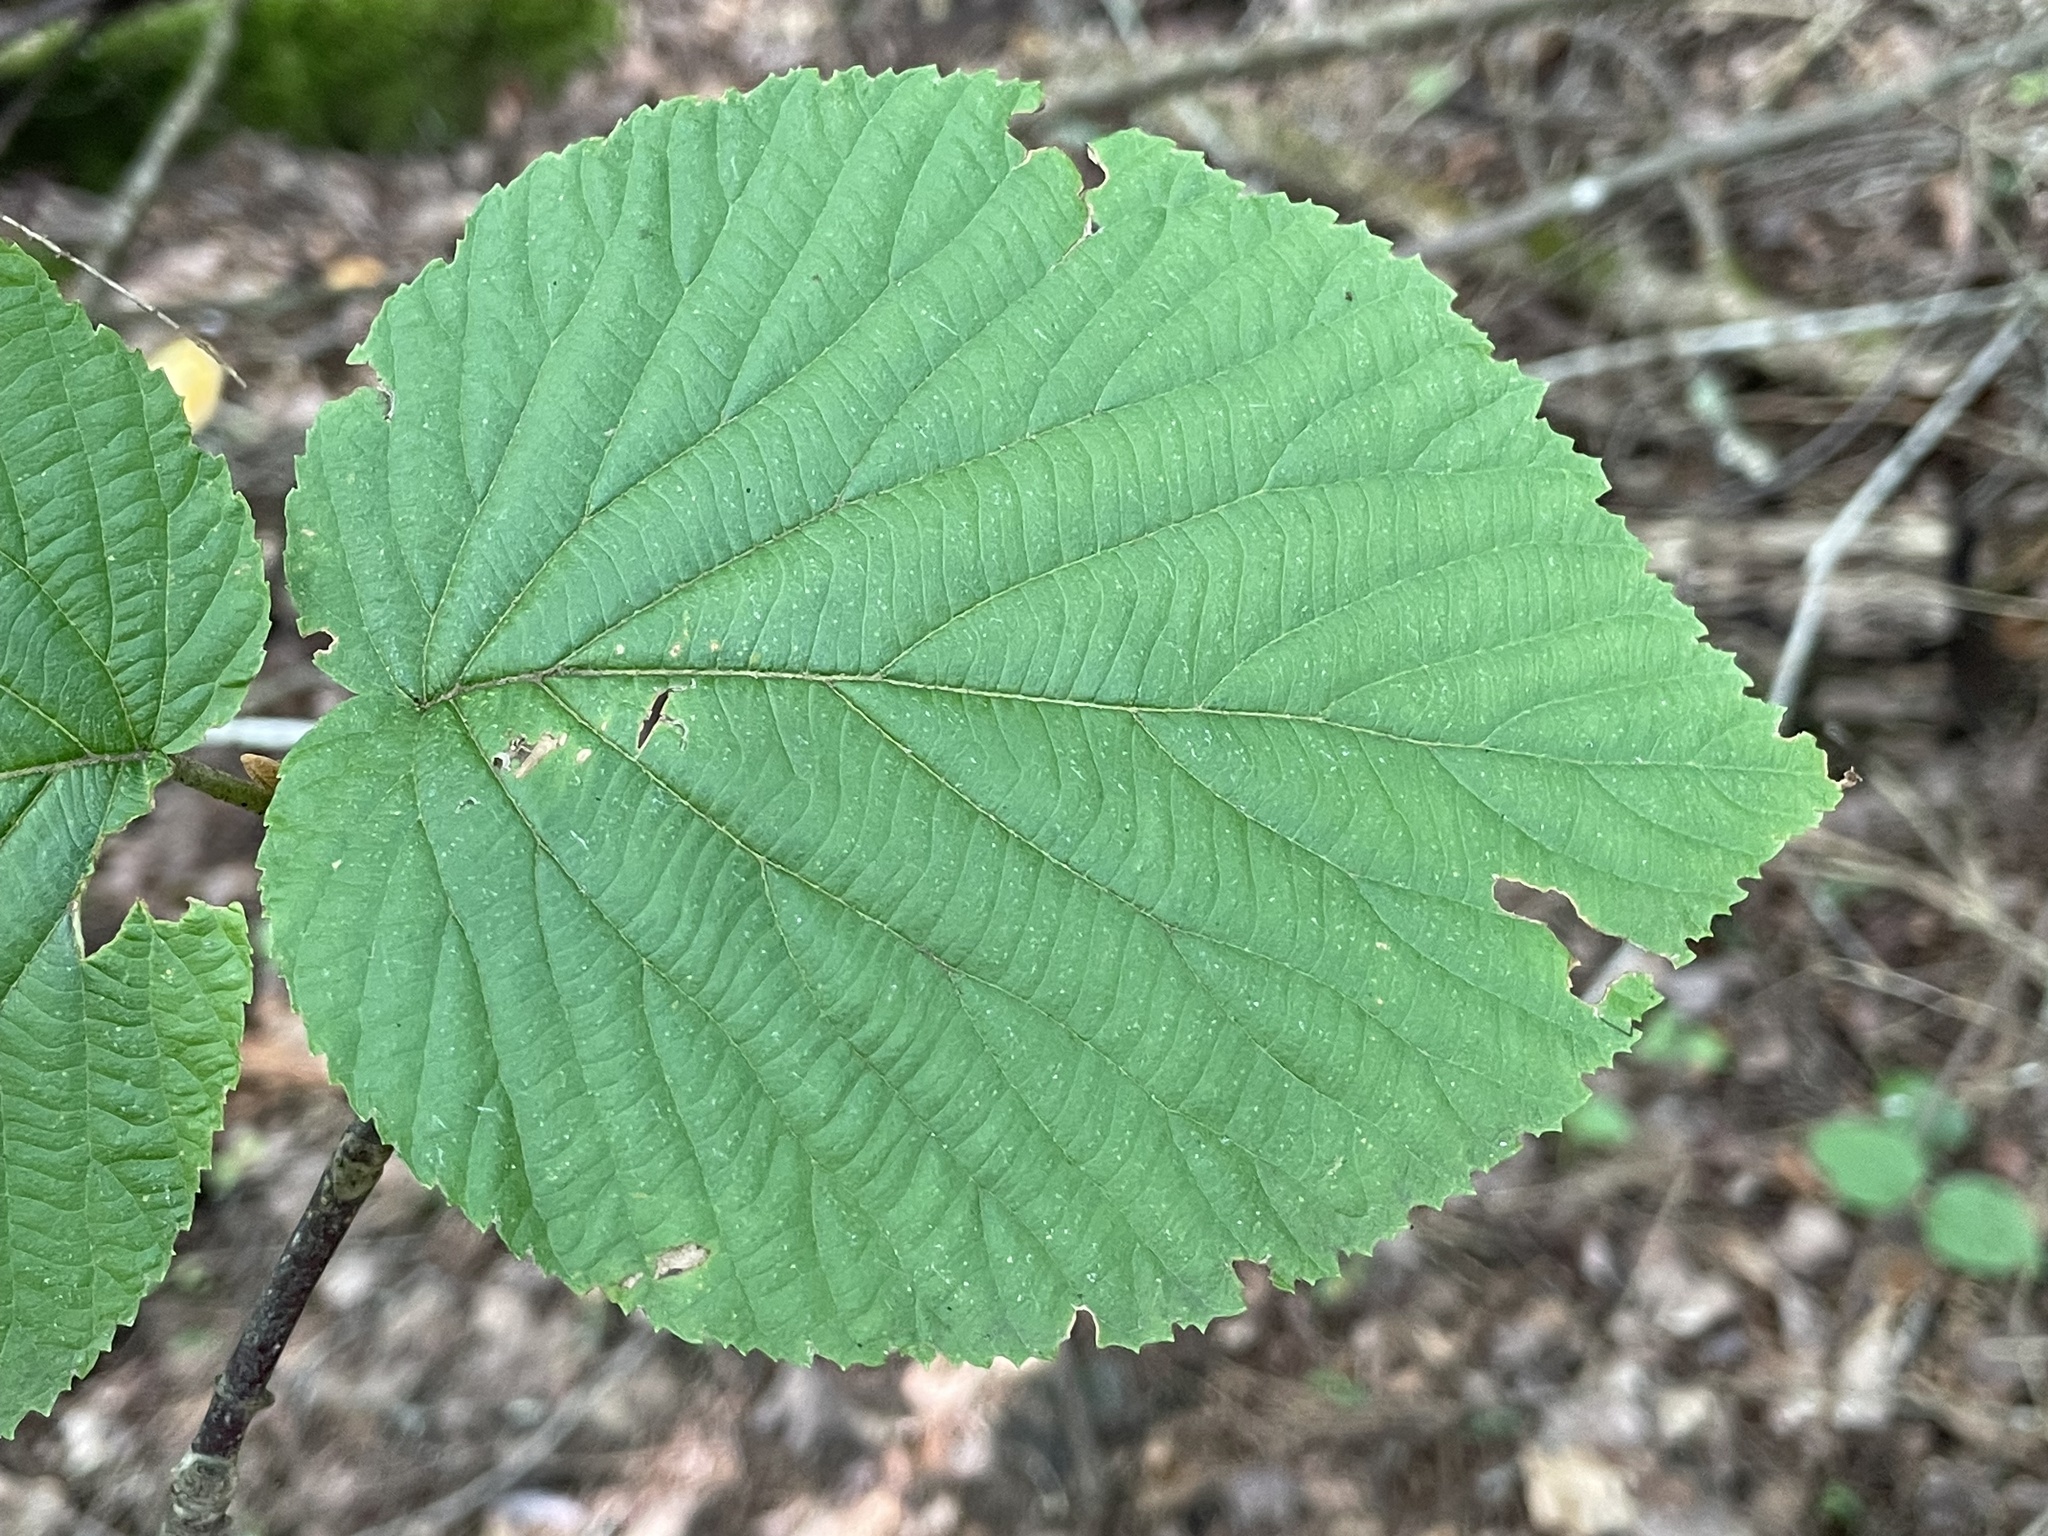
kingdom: Plantae
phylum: Tracheophyta
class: Magnoliopsida
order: Dipsacales
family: Viburnaceae
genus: Viburnum
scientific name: Viburnum lantanoides
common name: Hobblebush
